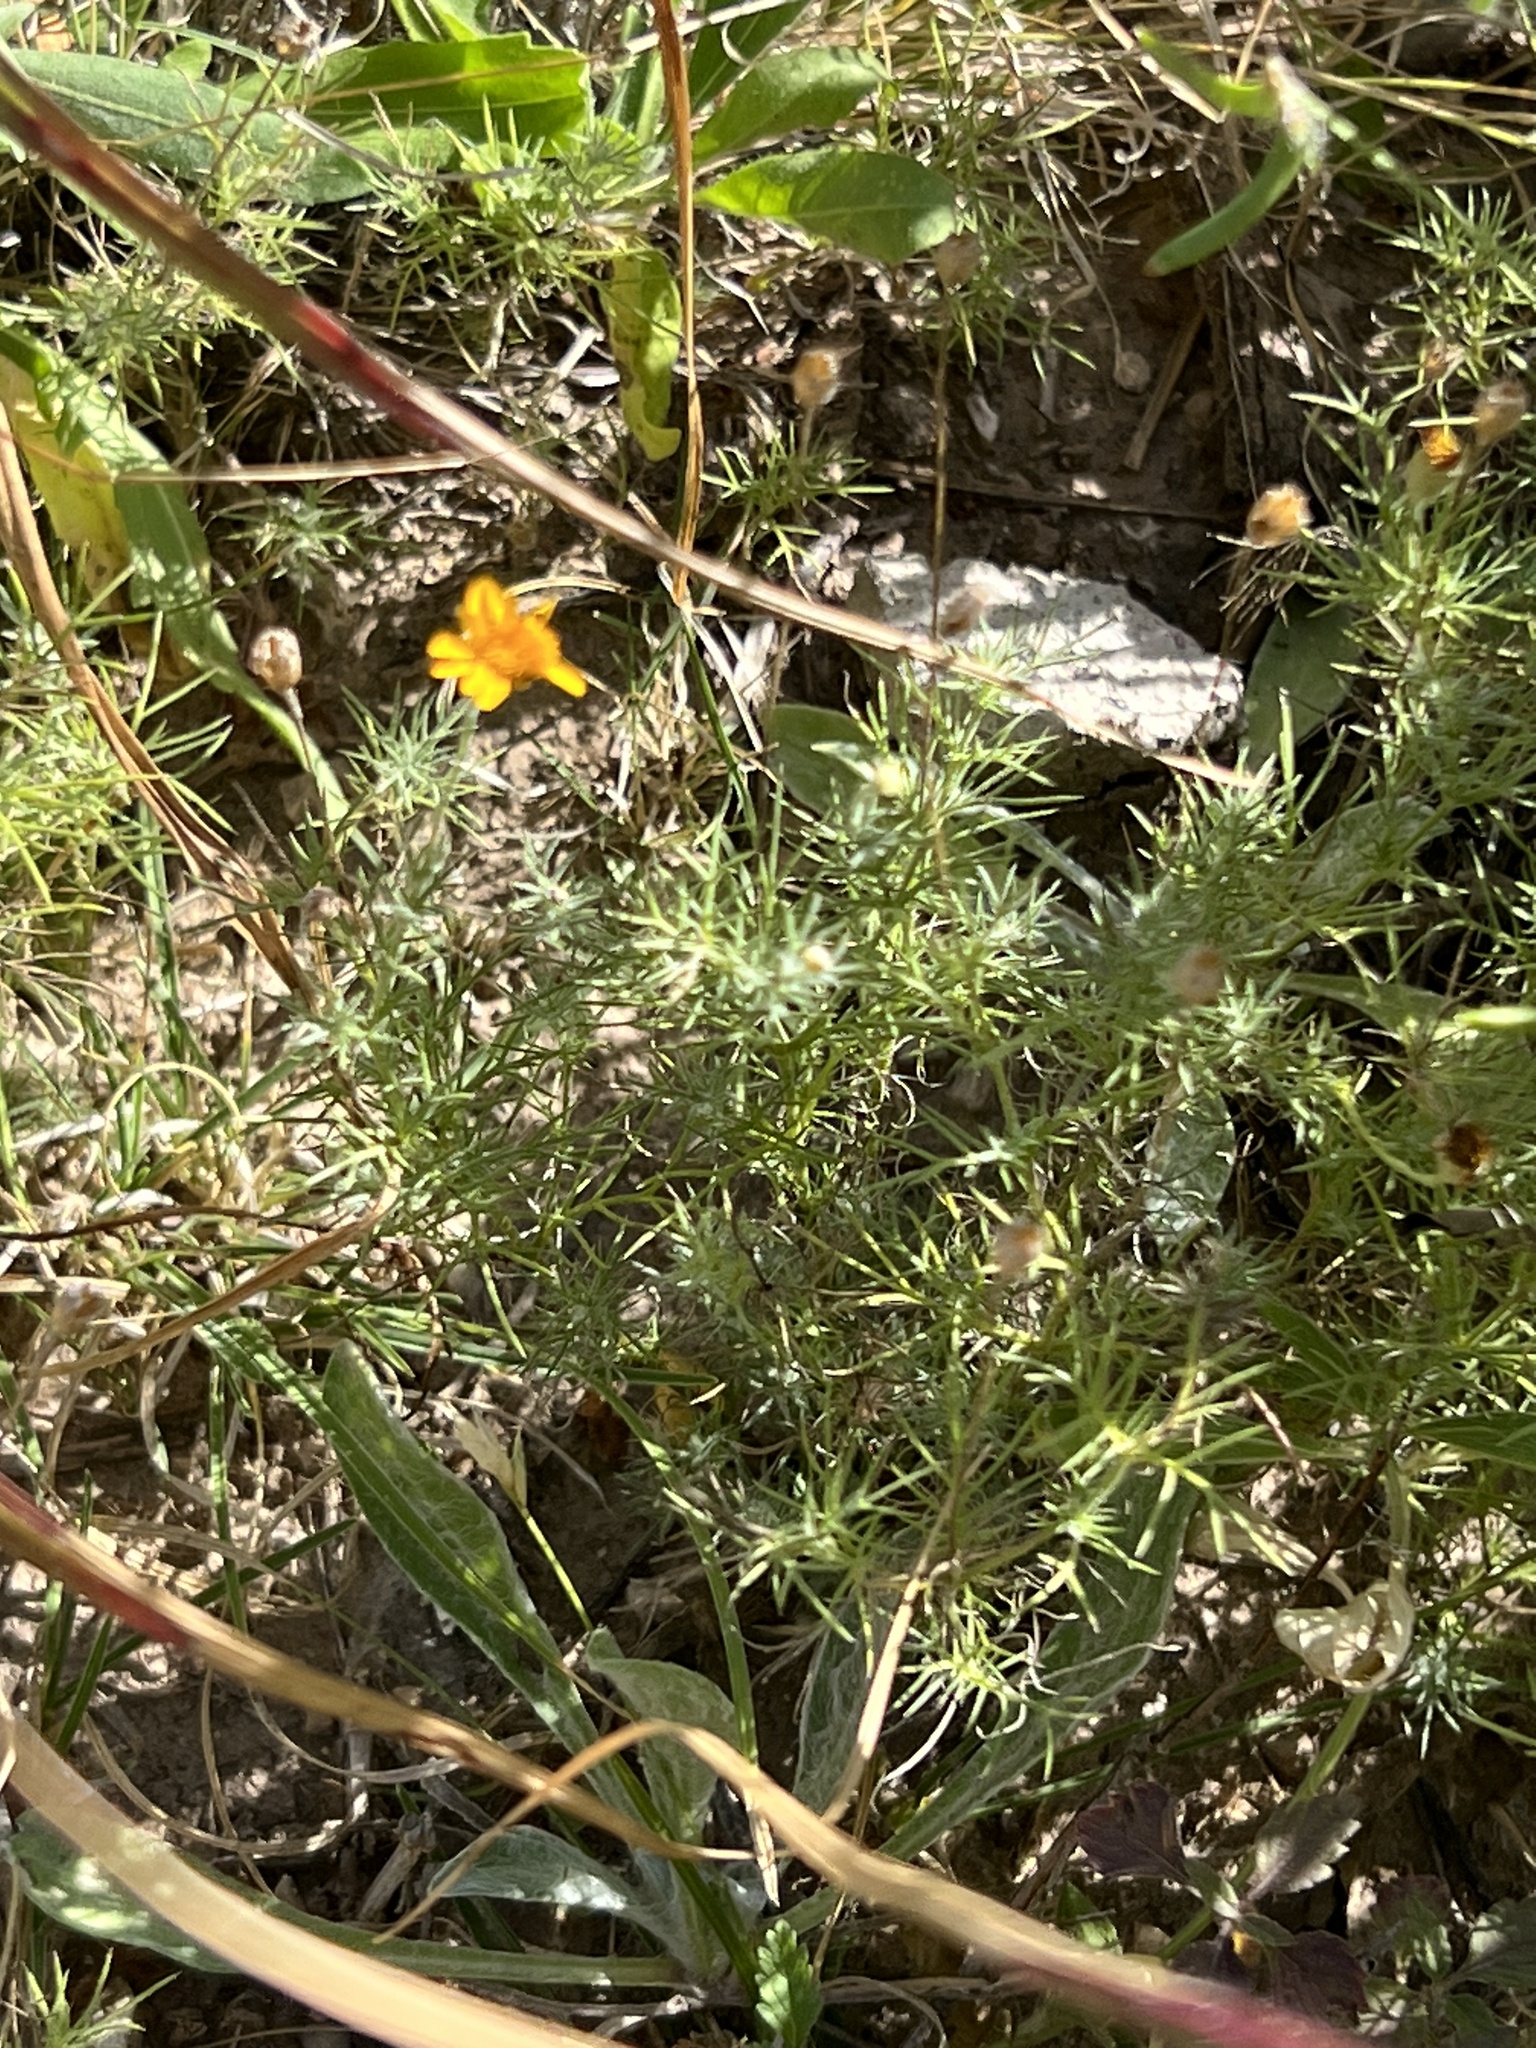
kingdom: Plantae
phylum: Tracheophyta
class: Magnoliopsida
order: Asterales
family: Asteraceae
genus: Thymophylla
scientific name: Thymophylla pentachaeta
